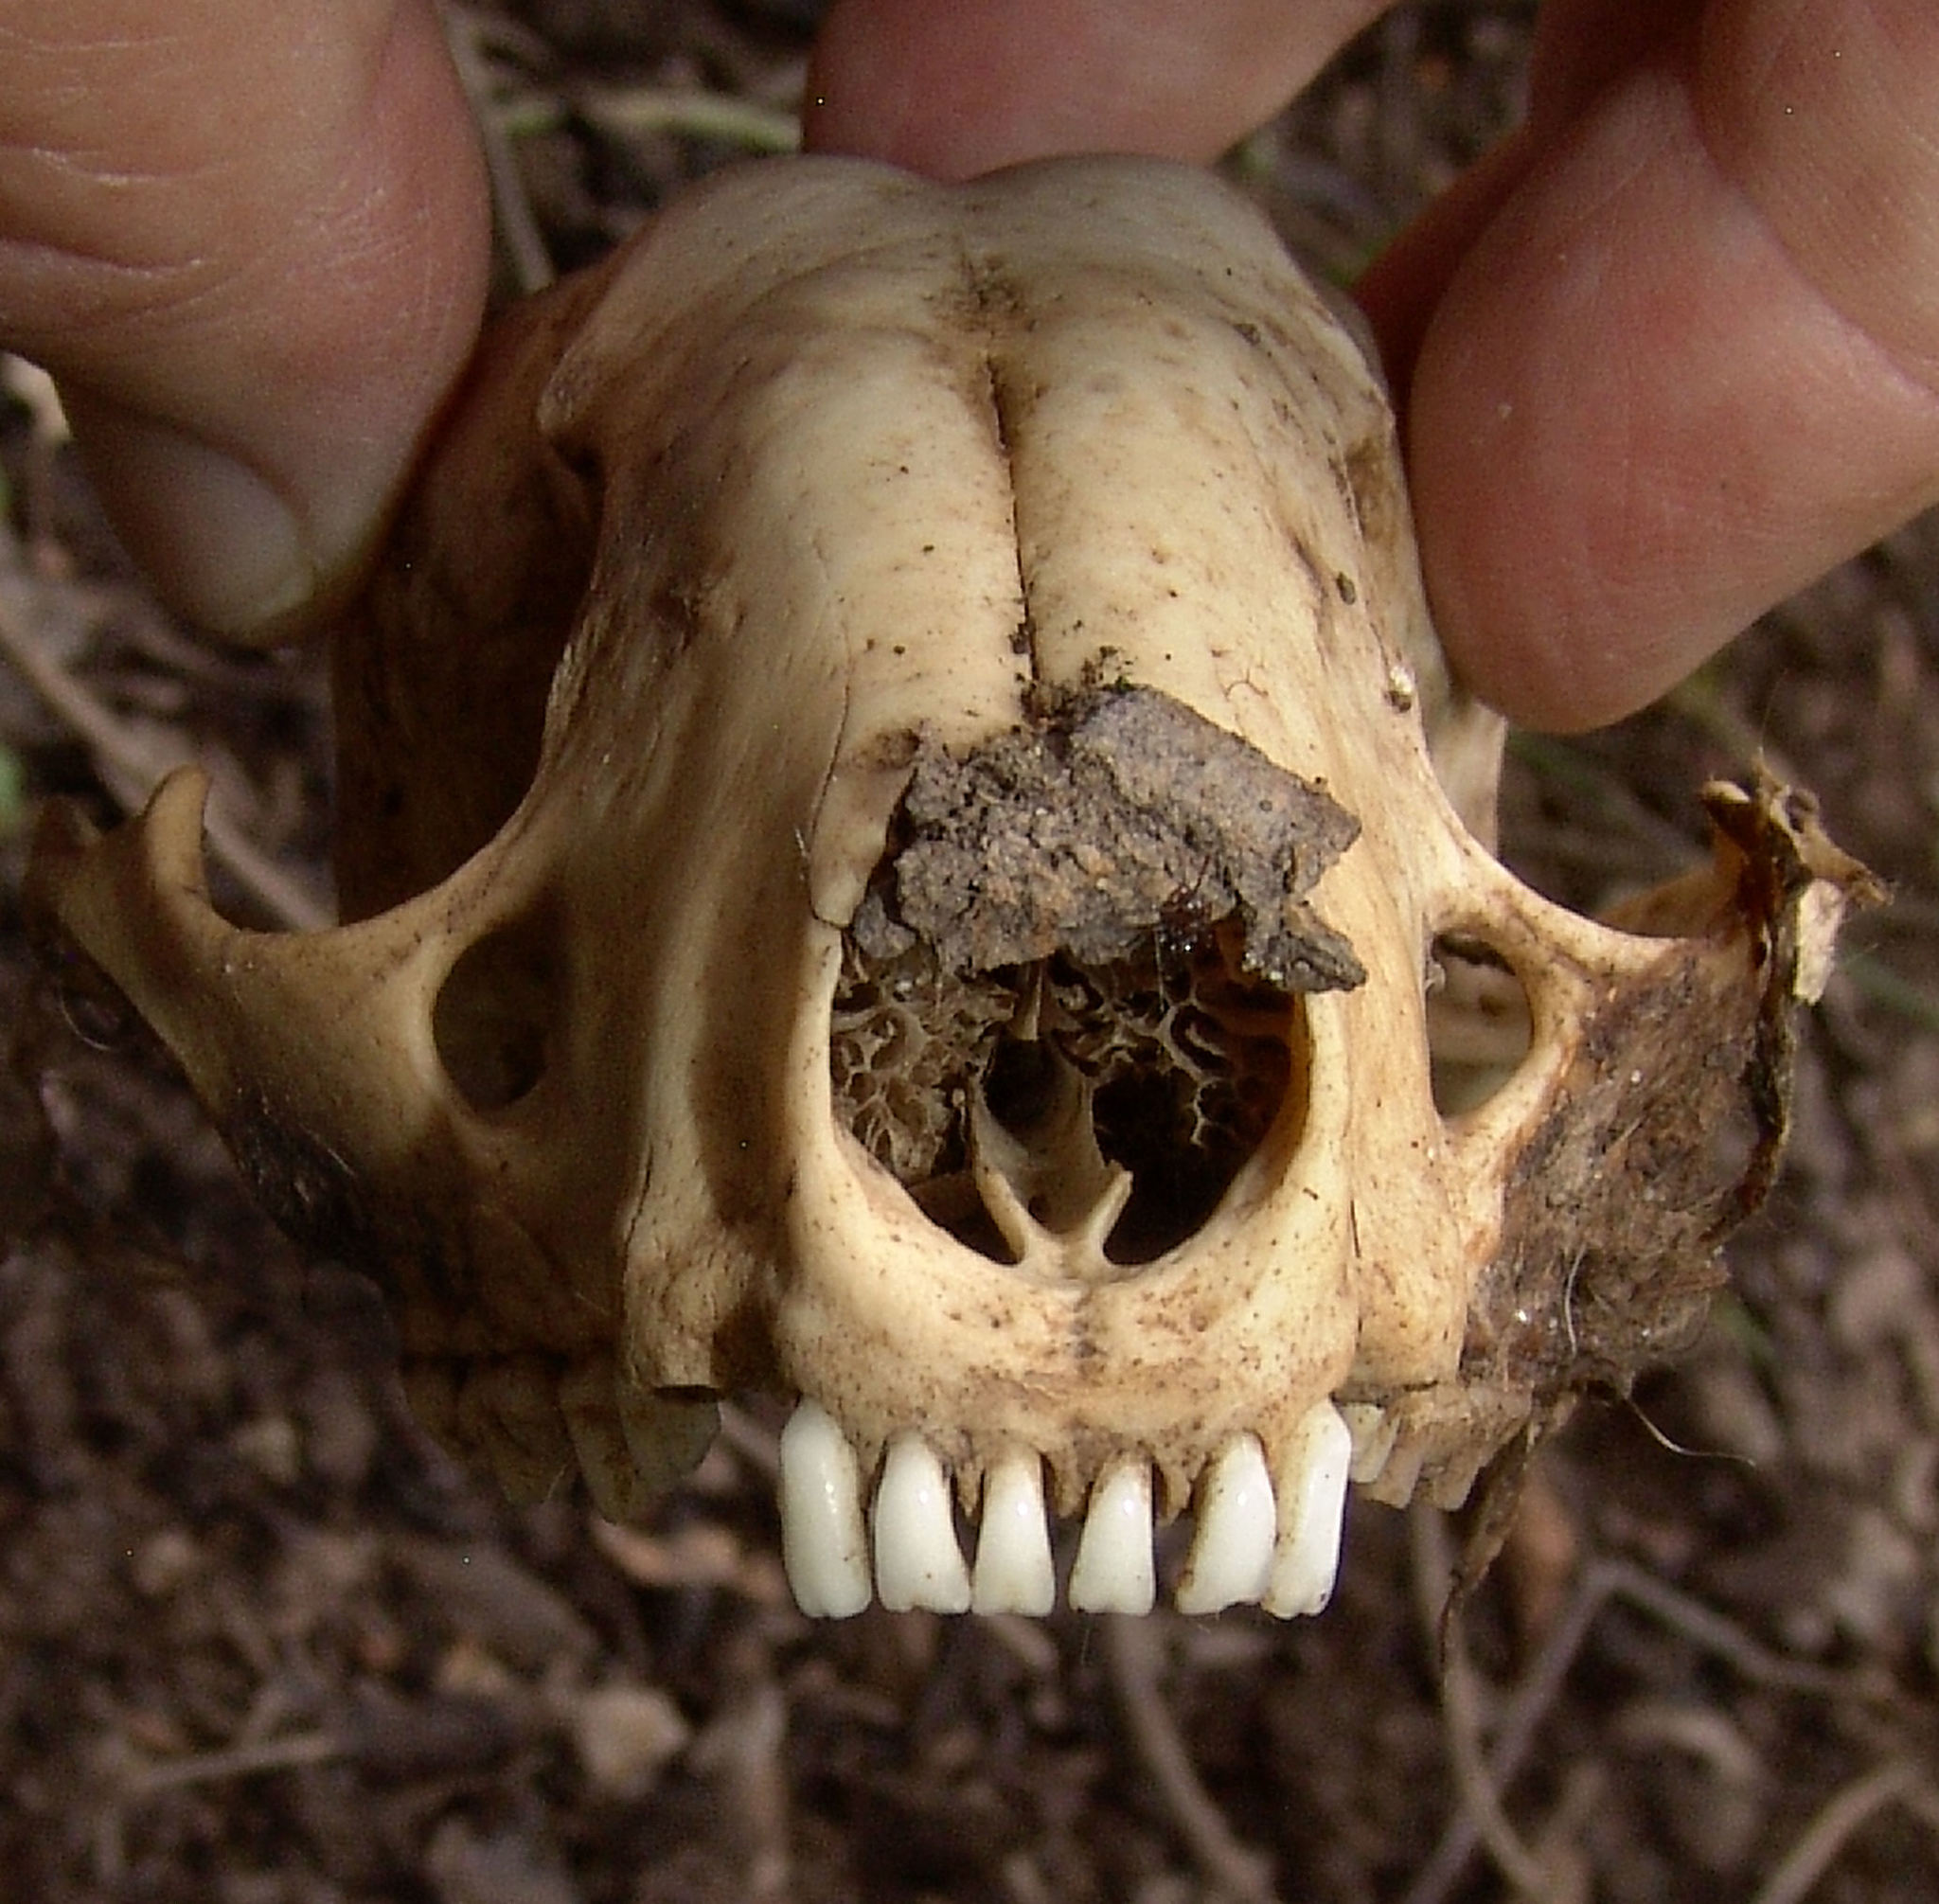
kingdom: Animalia
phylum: Chordata
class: Mammalia
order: Carnivora
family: Procyonidae
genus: Procyon
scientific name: Procyon lotor
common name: Raccoon
